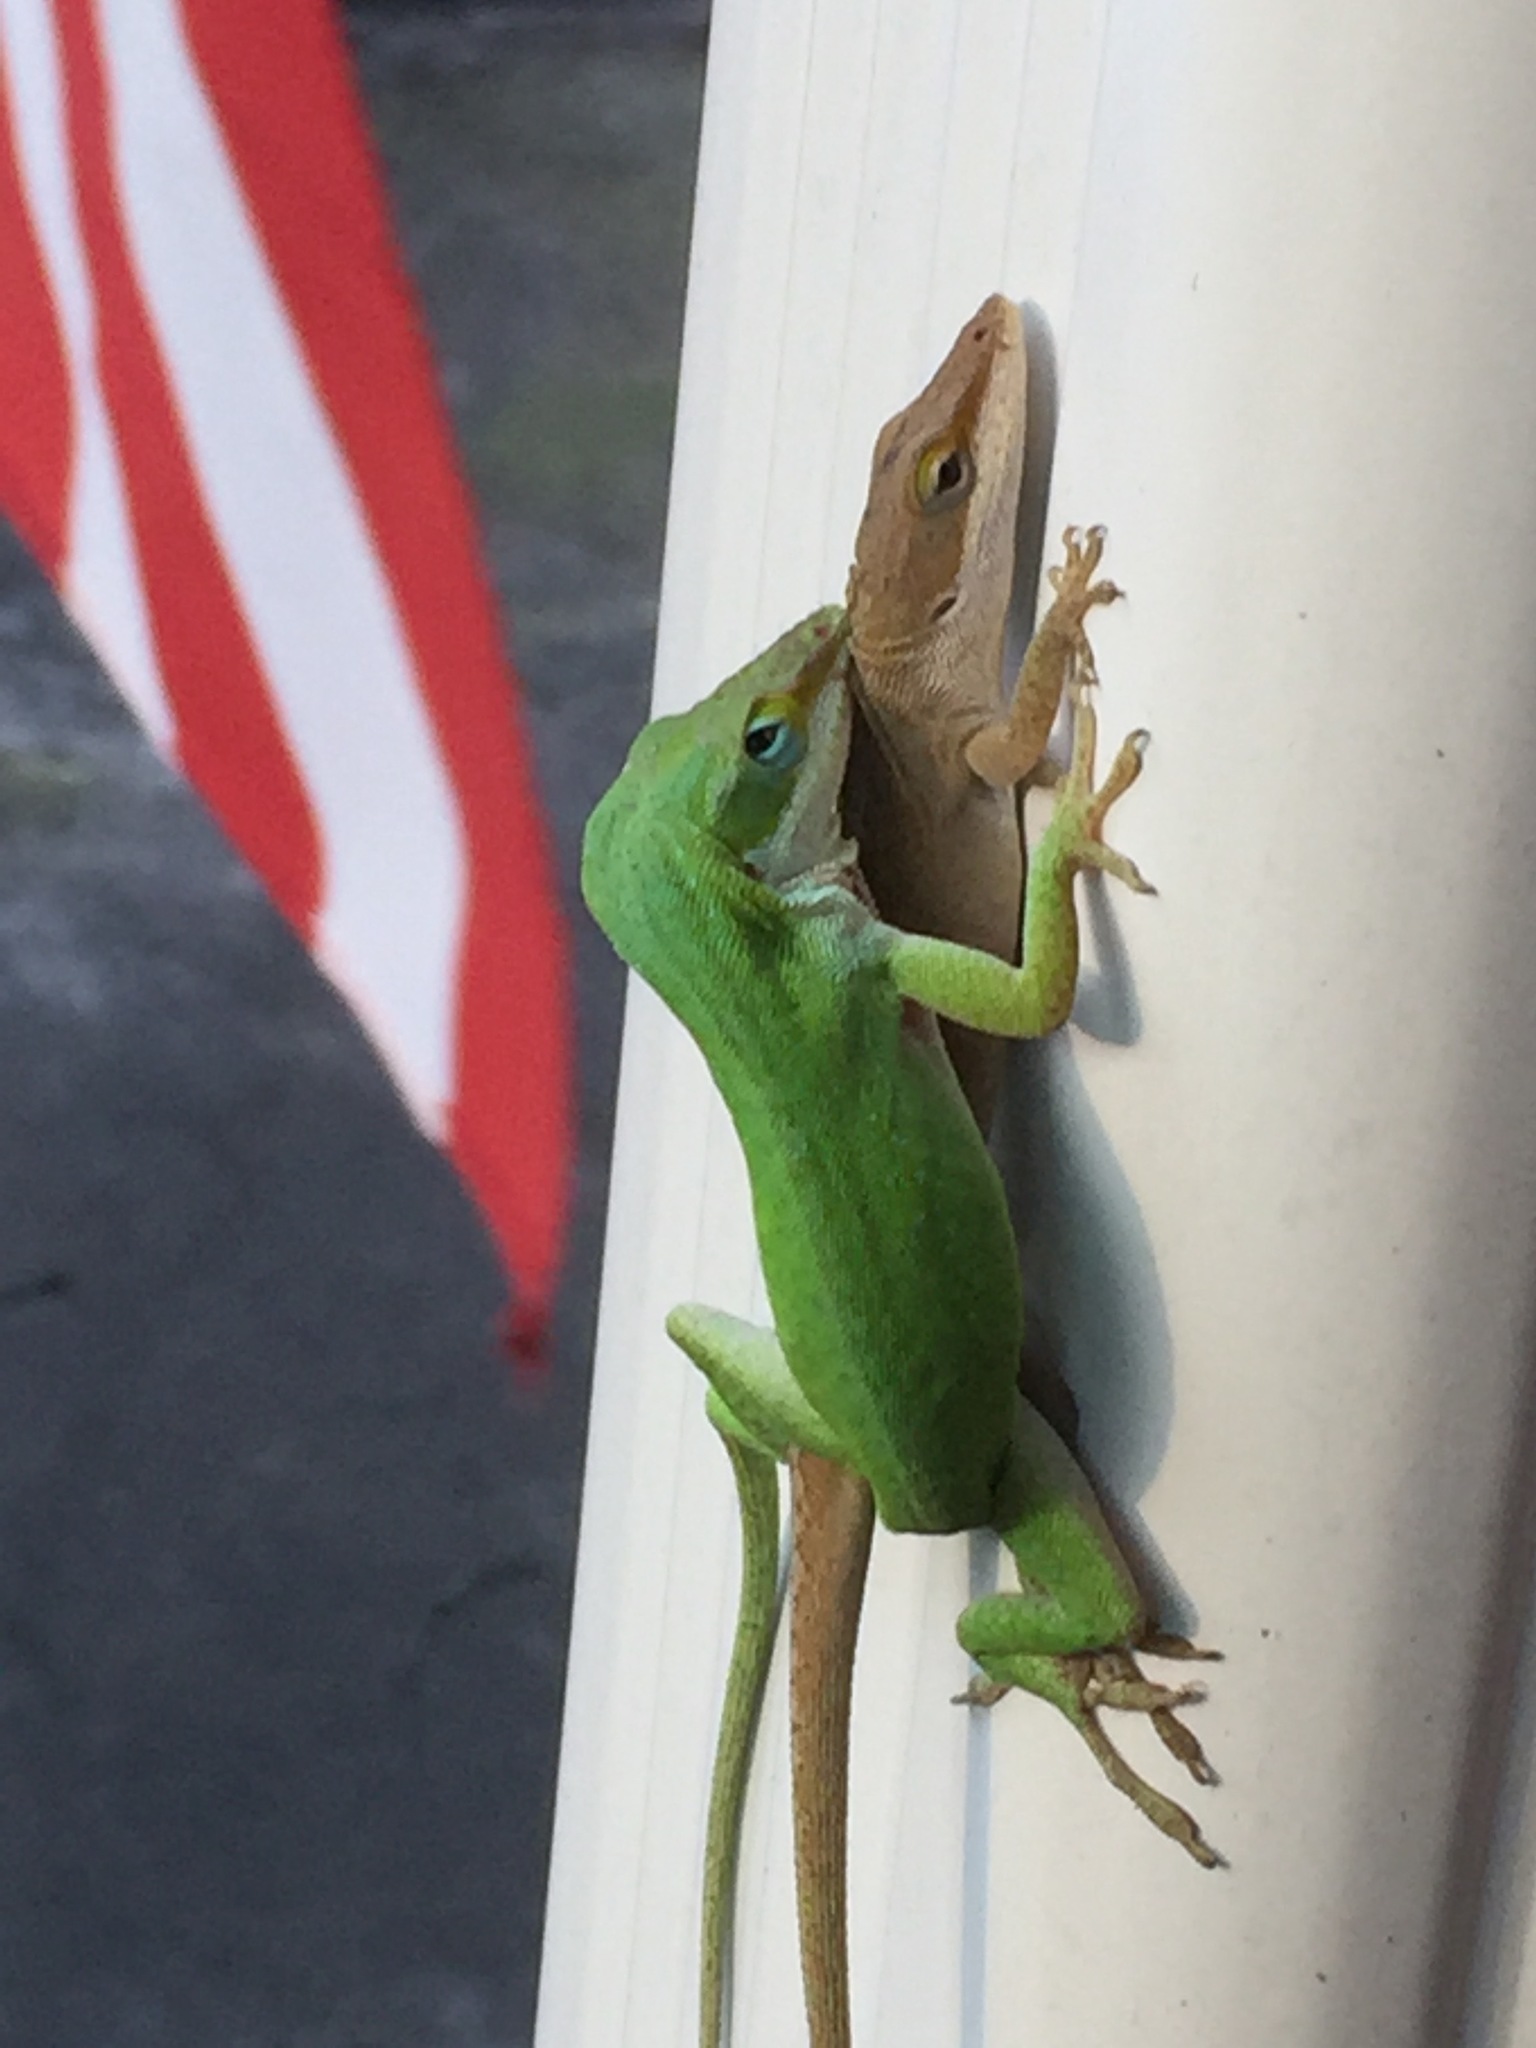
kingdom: Animalia
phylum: Chordata
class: Squamata
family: Dactyloidae
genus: Anolis
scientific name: Anolis carolinensis
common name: Green anole
